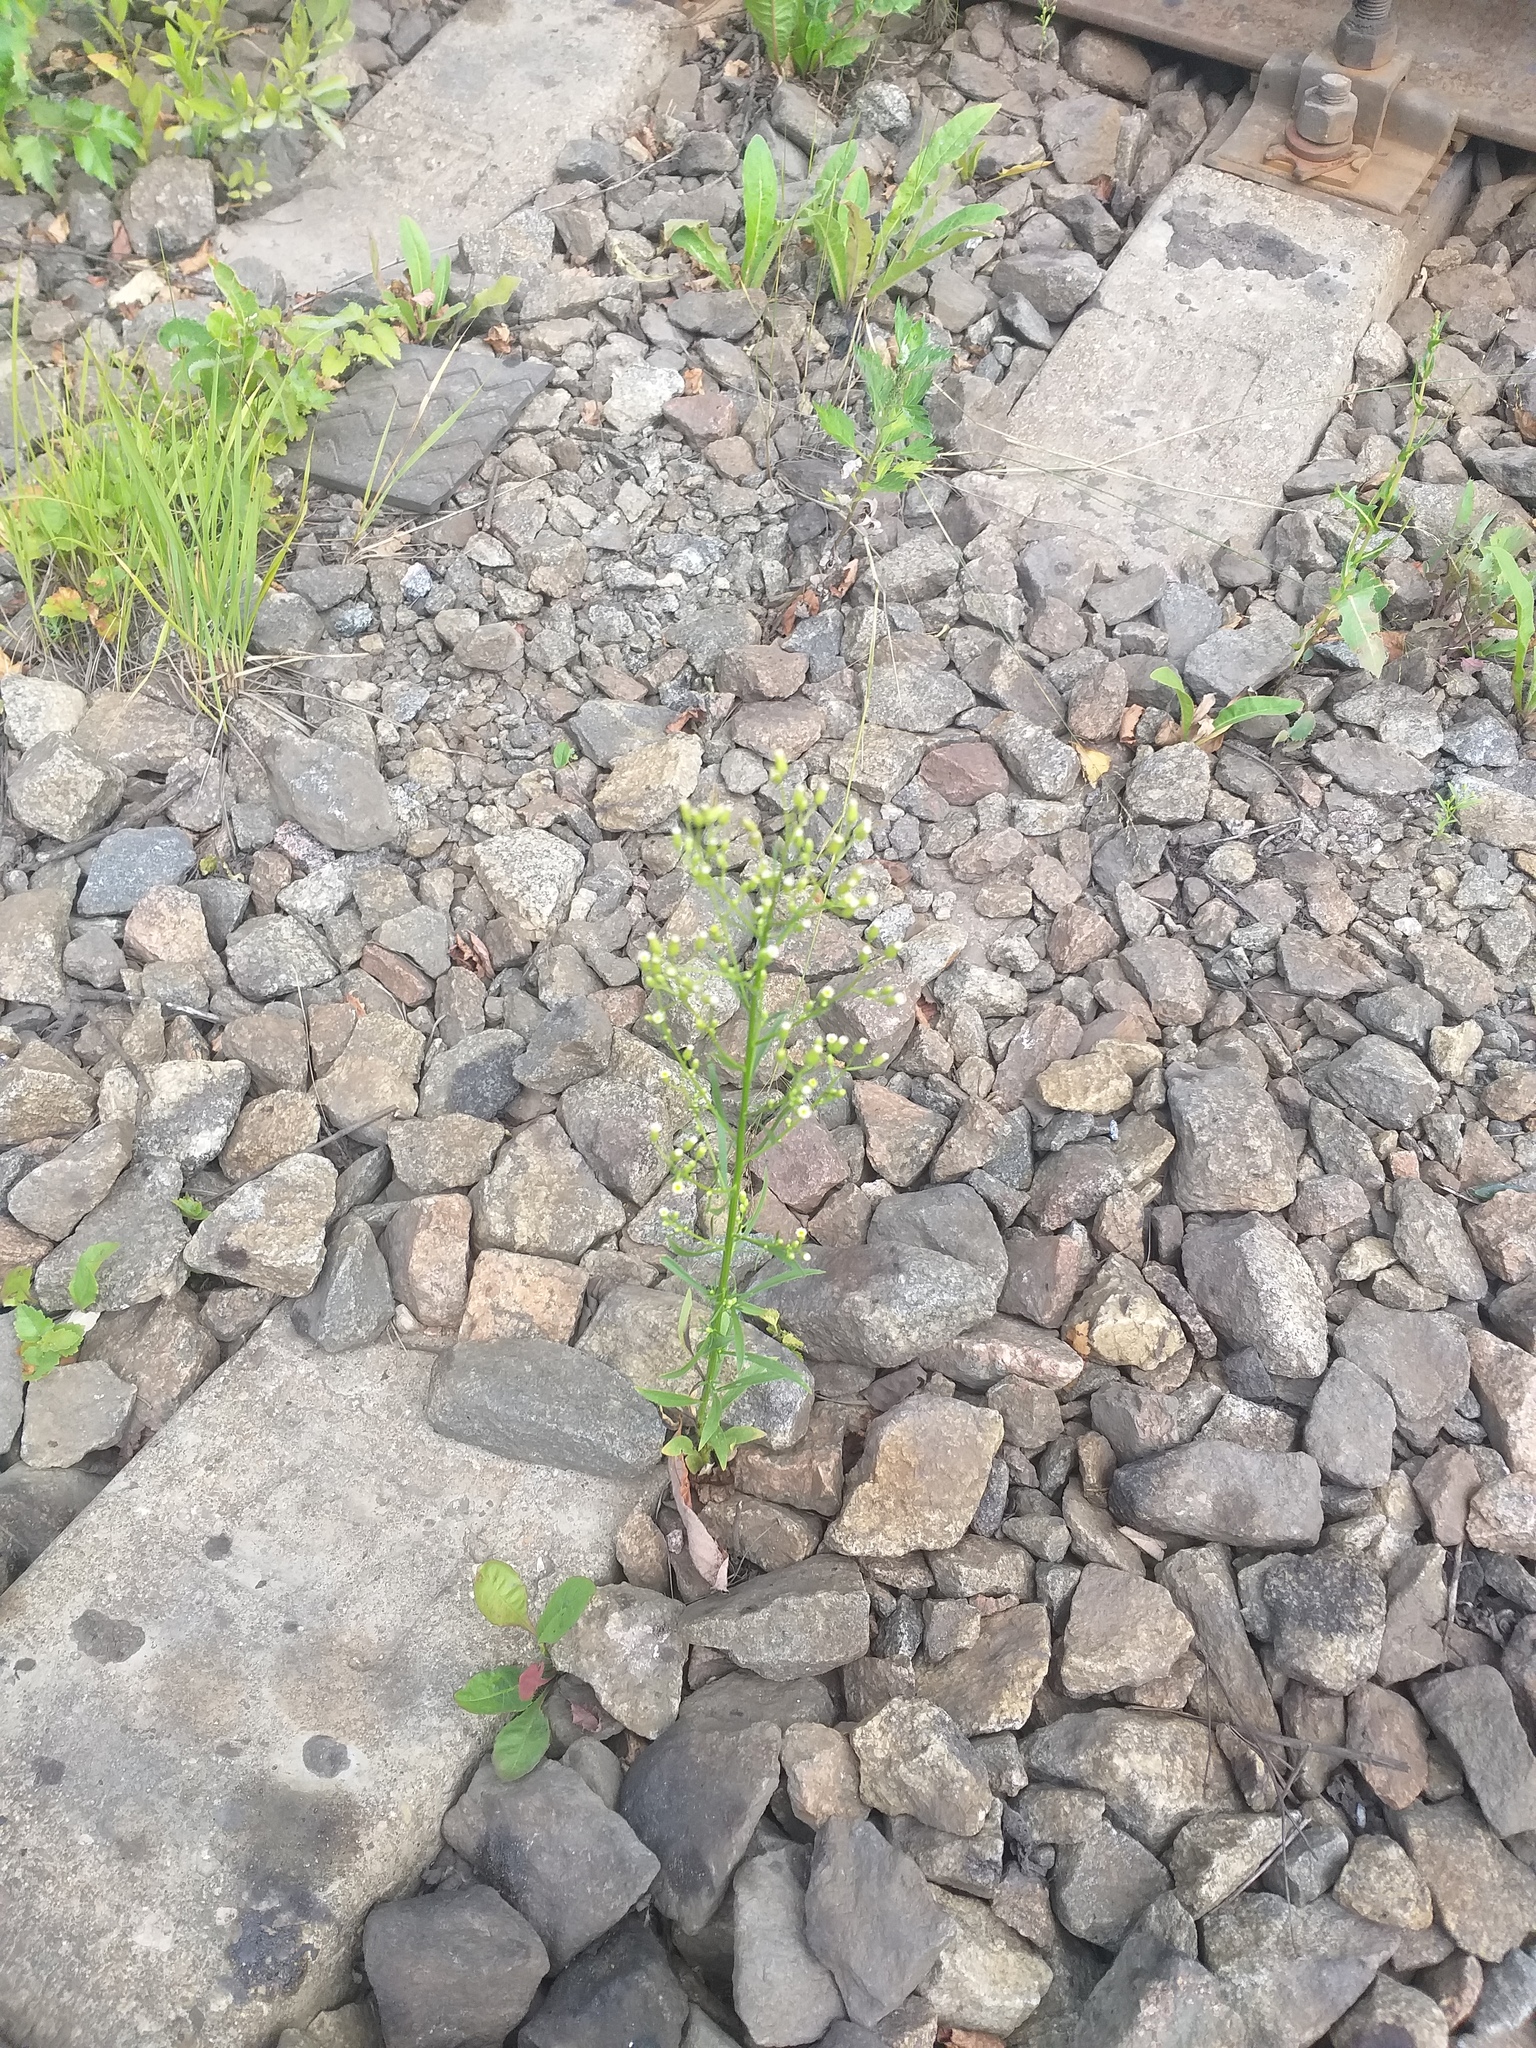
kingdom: Plantae
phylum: Tracheophyta
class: Magnoliopsida
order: Asterales
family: Asteraceae
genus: Erigeron
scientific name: Erigeron canadensis
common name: Canadian fleabane
